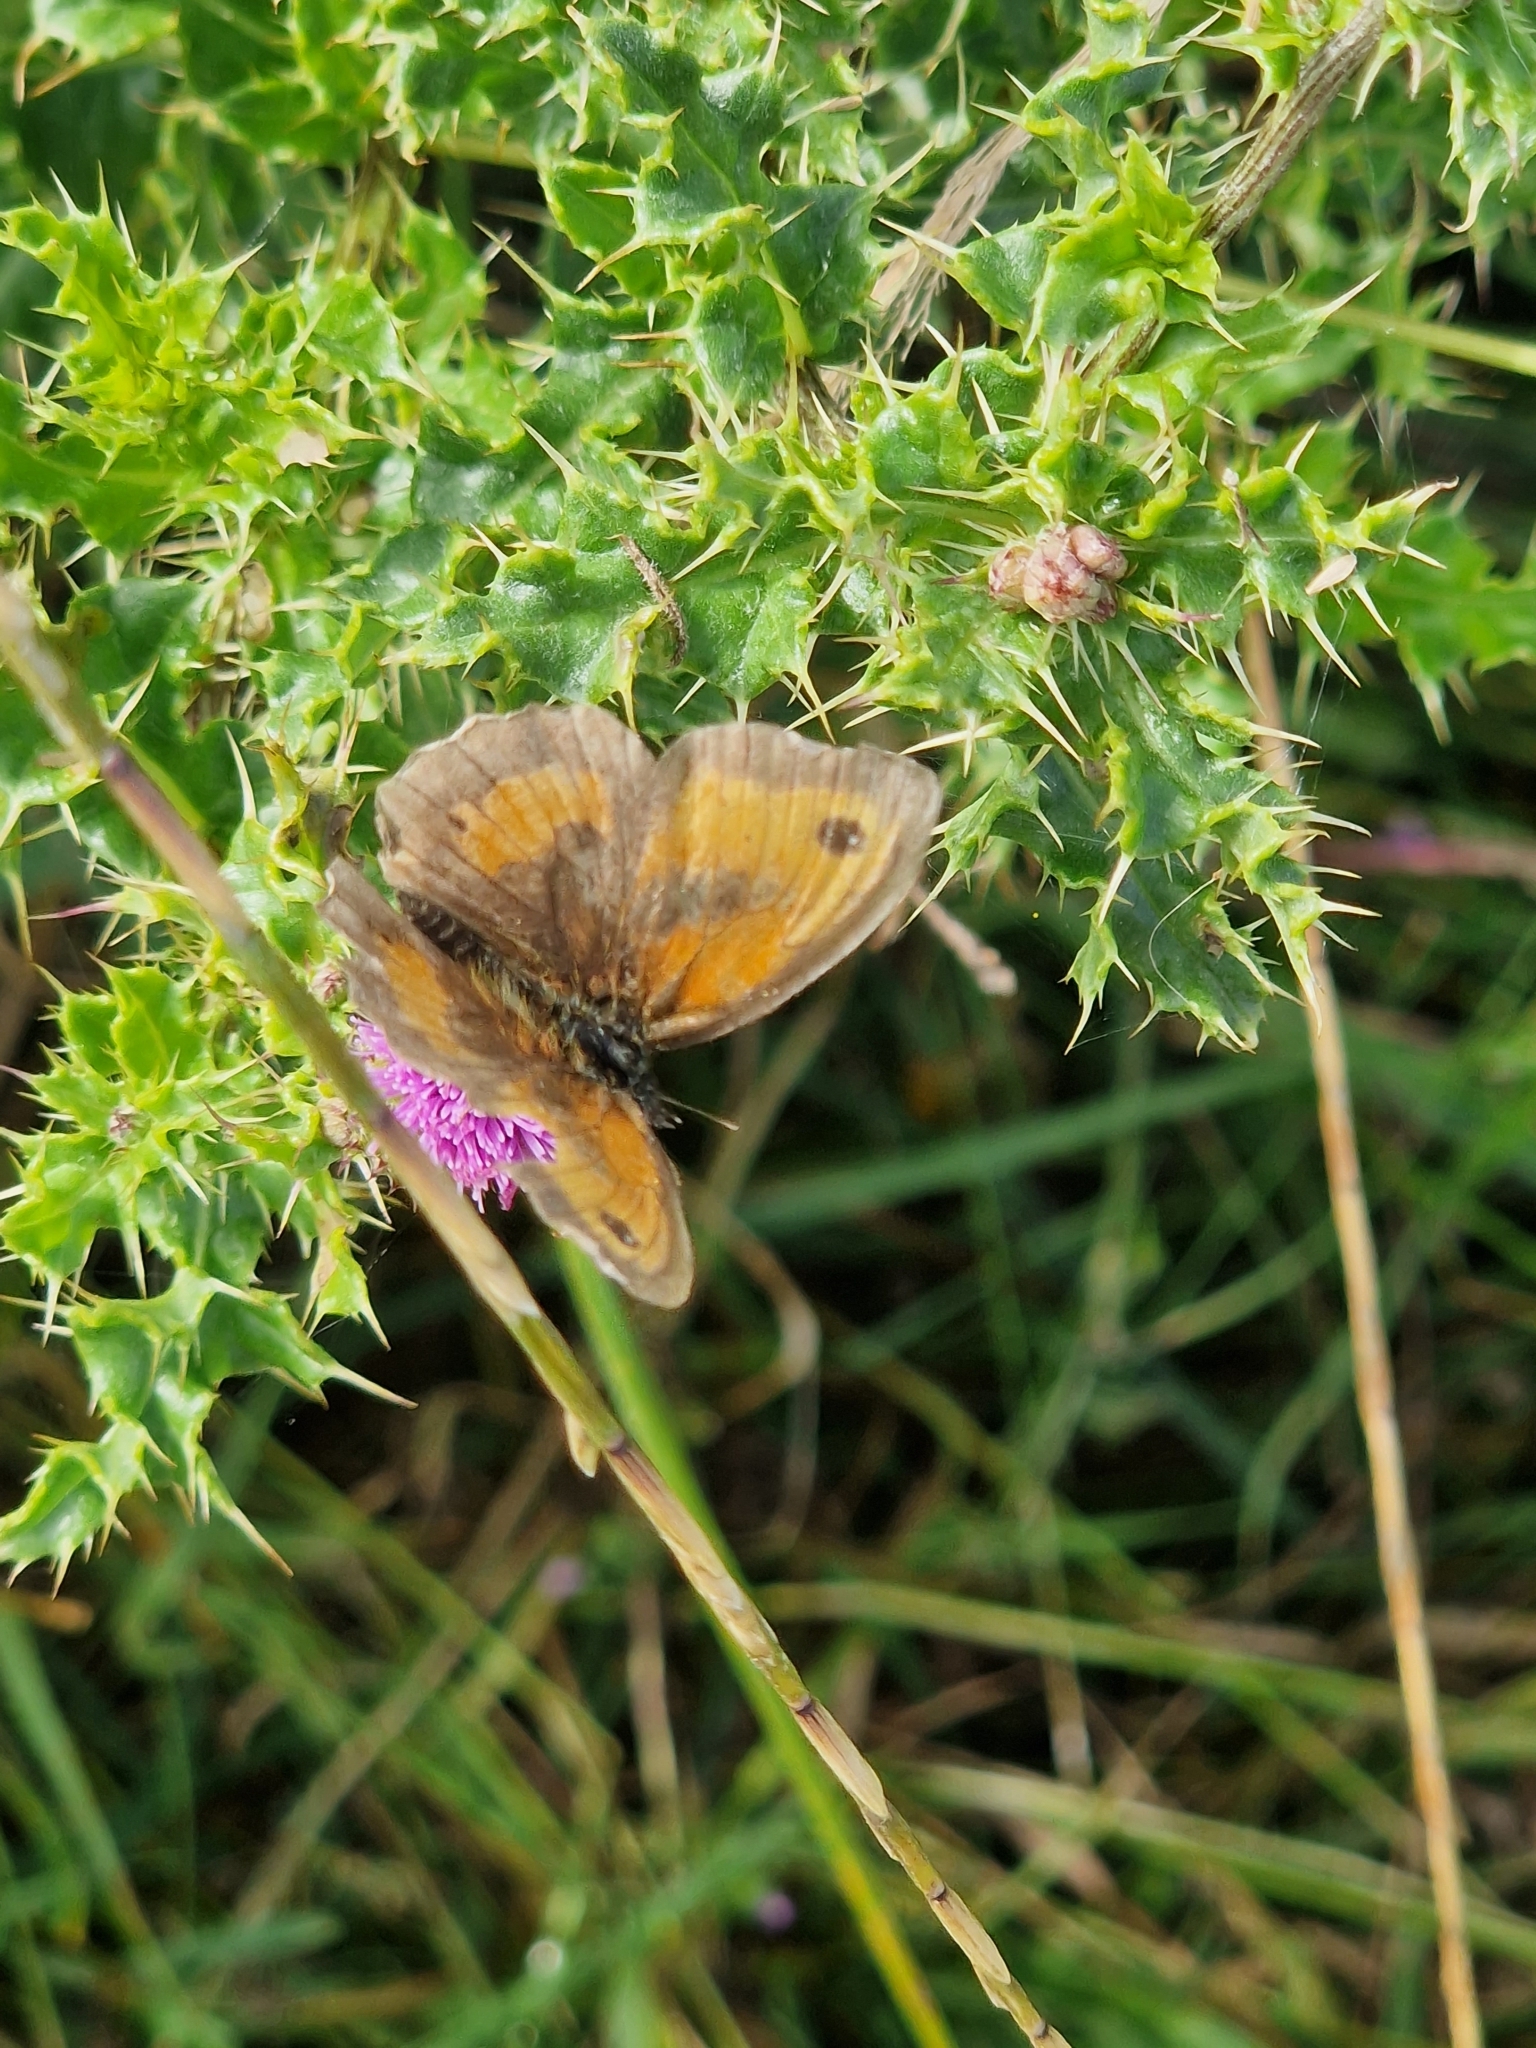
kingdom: Animalia
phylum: Arthropoda
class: Insecta
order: Lepidoptera
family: Nymphalidae
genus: Pyronia
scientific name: Pyronia tithonus
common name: Gatekeeper
